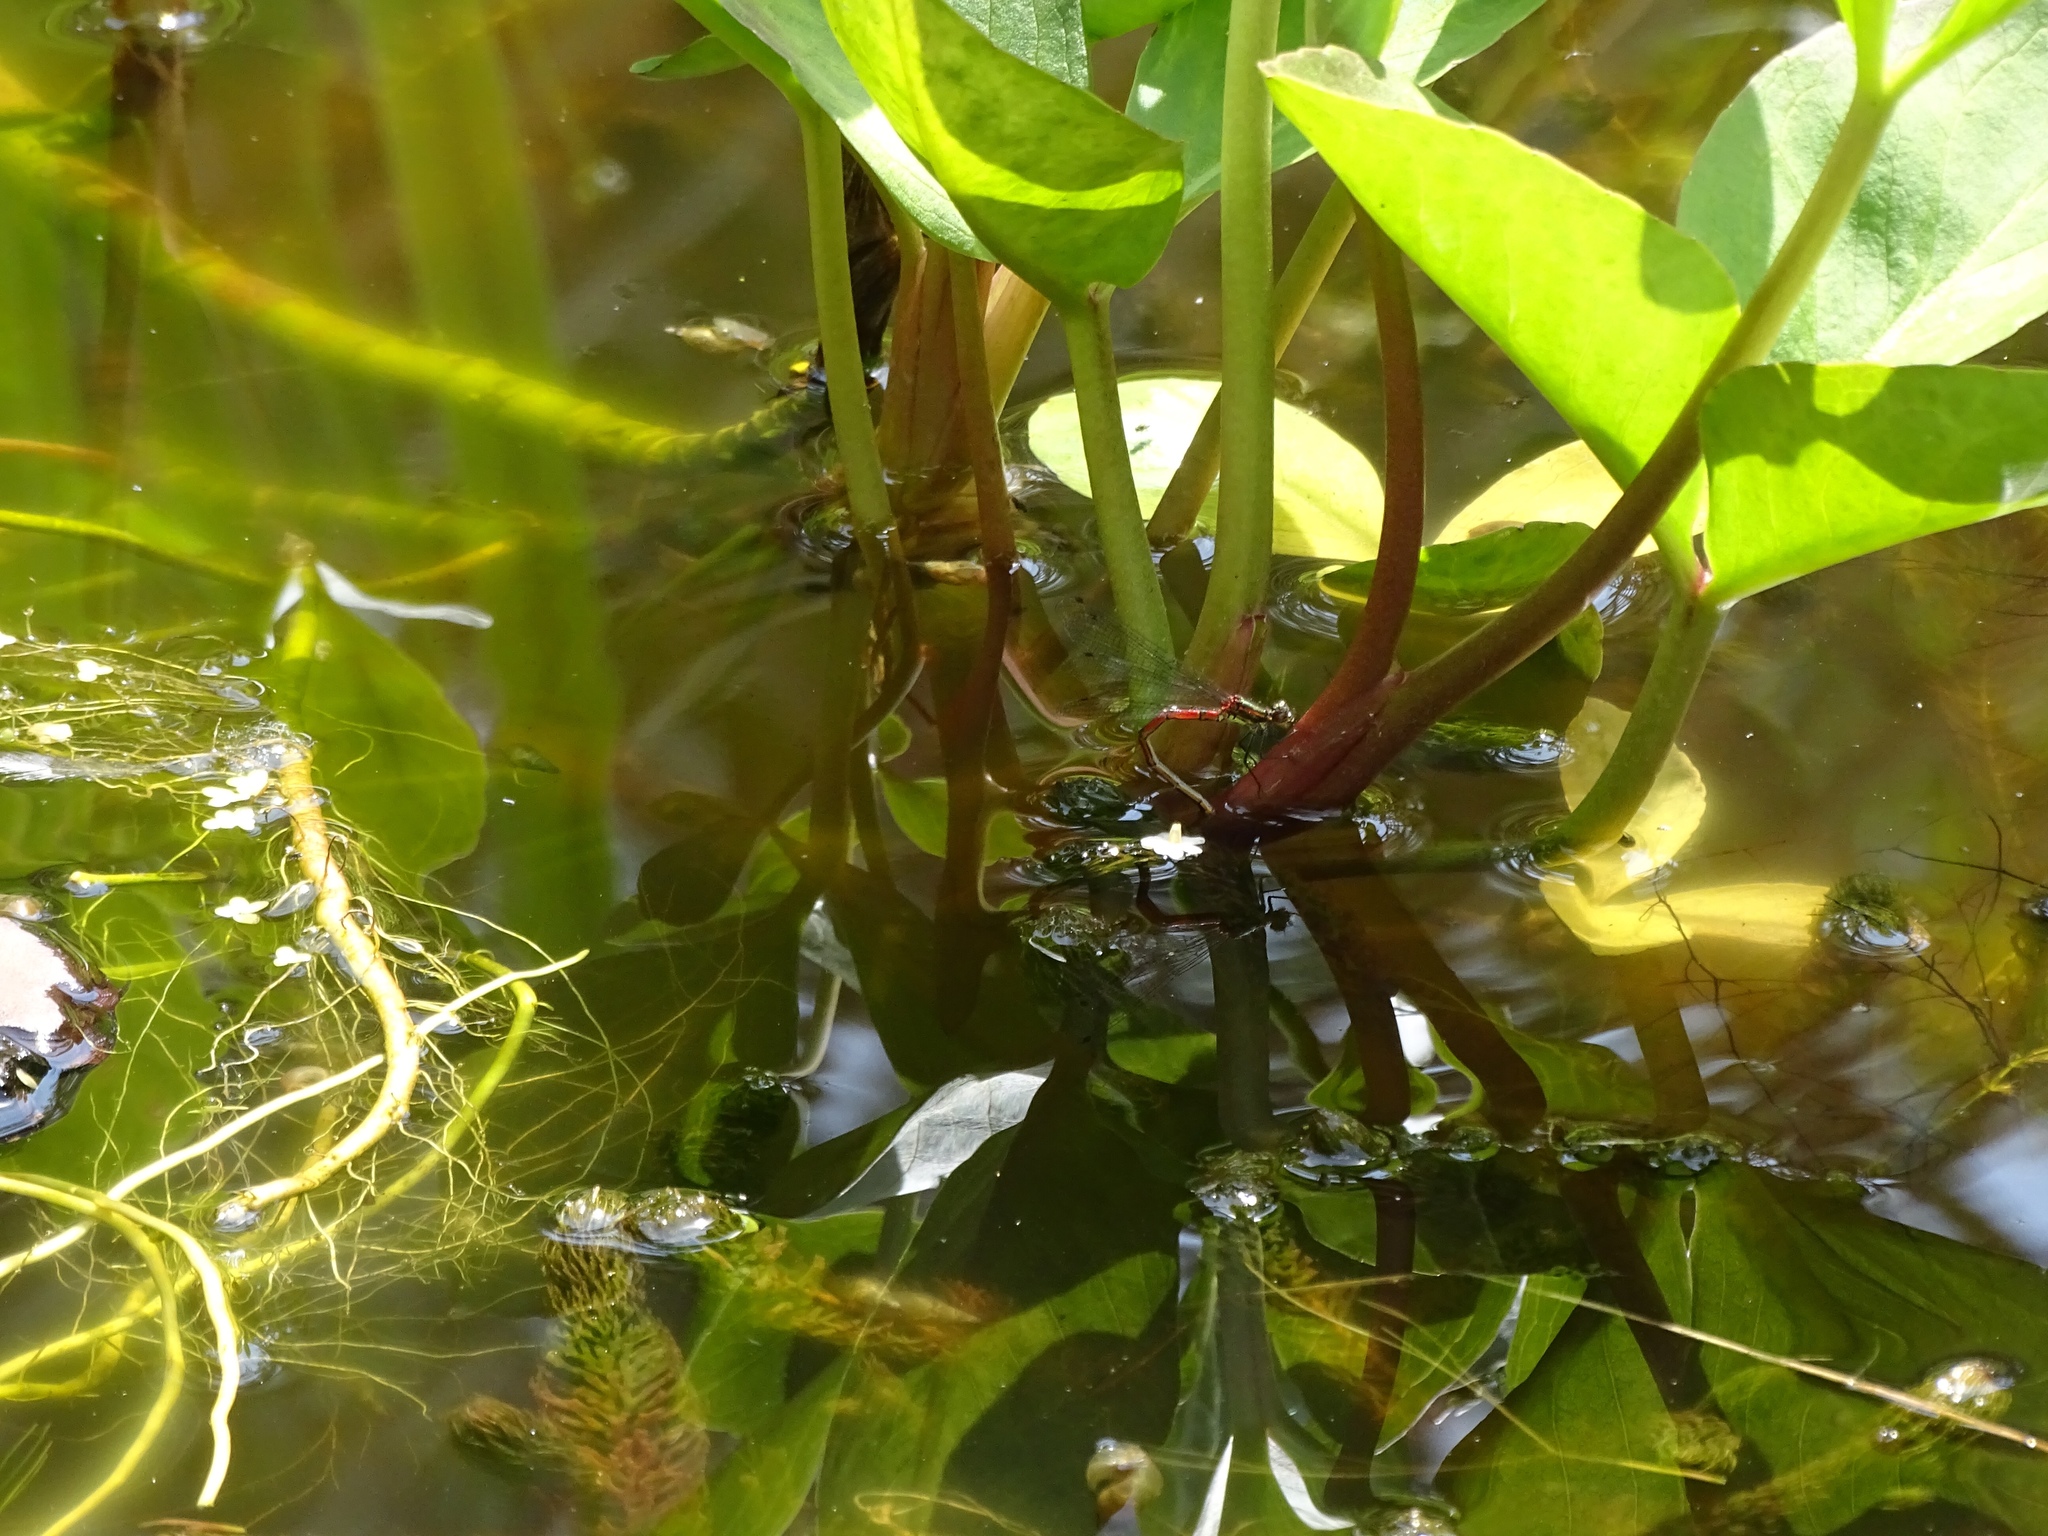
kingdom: Animalia
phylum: Arthropoda
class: Insecta
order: Odonata
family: Coenagrionidae
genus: Pyrrhosoma
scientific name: Pyrrhosoma nymphula
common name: Large red damsel
